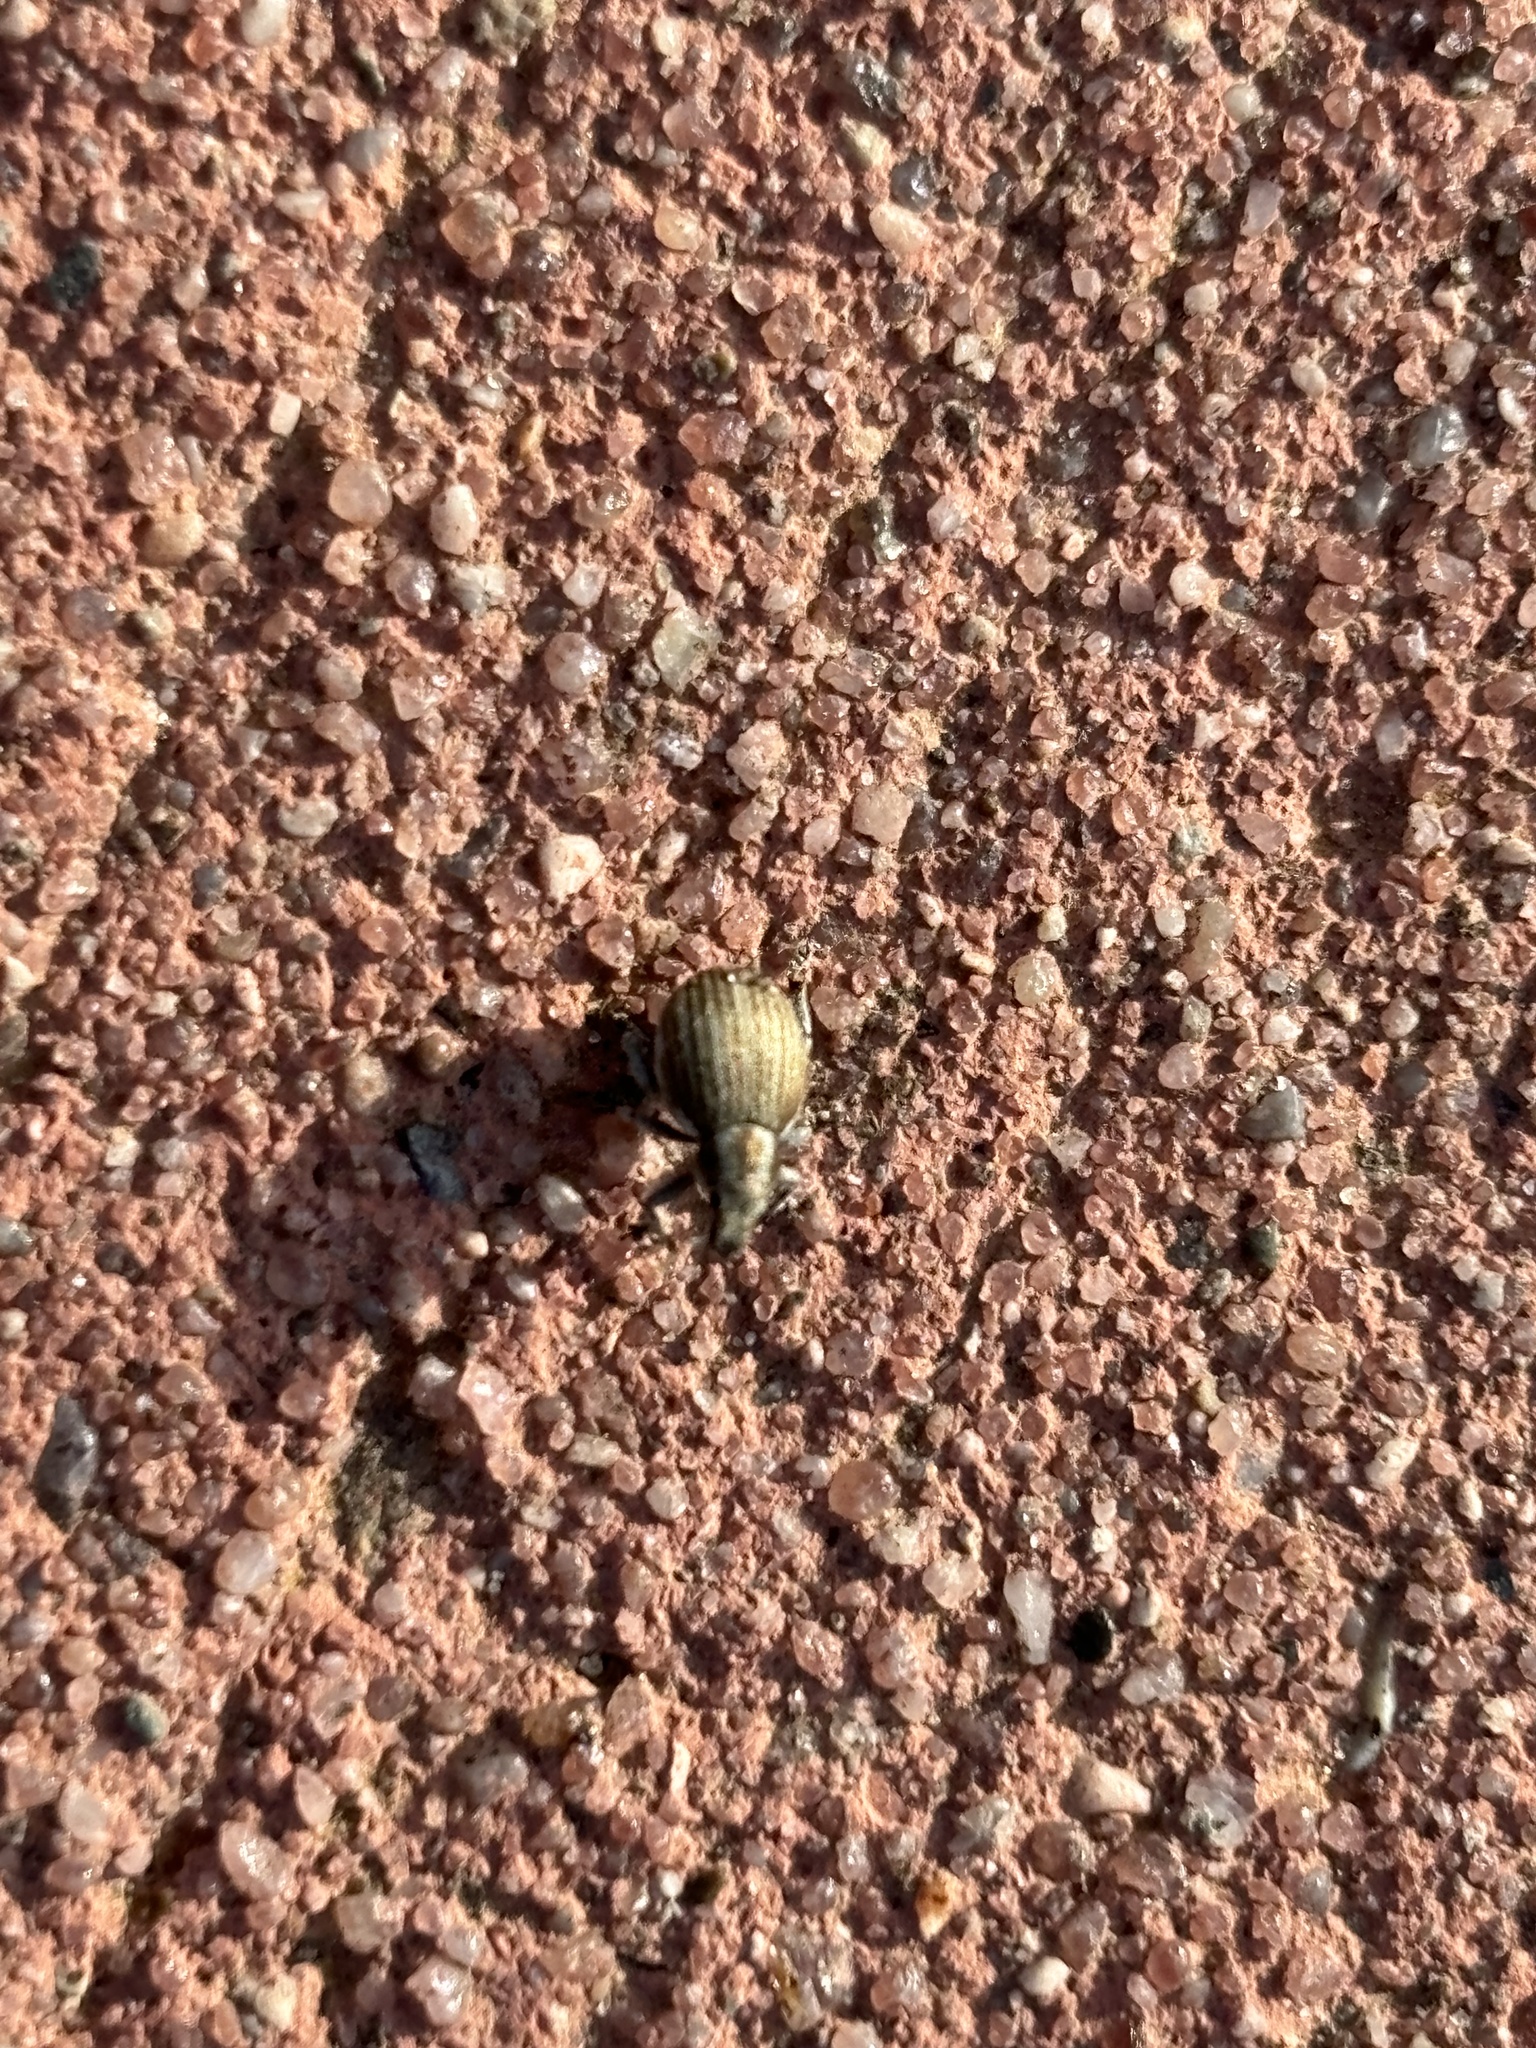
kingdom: Animalia
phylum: Arthropoda
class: Insecta
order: Coleoptera
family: Curculionidae
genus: Philopedon
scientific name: Philopedon plagiatum
